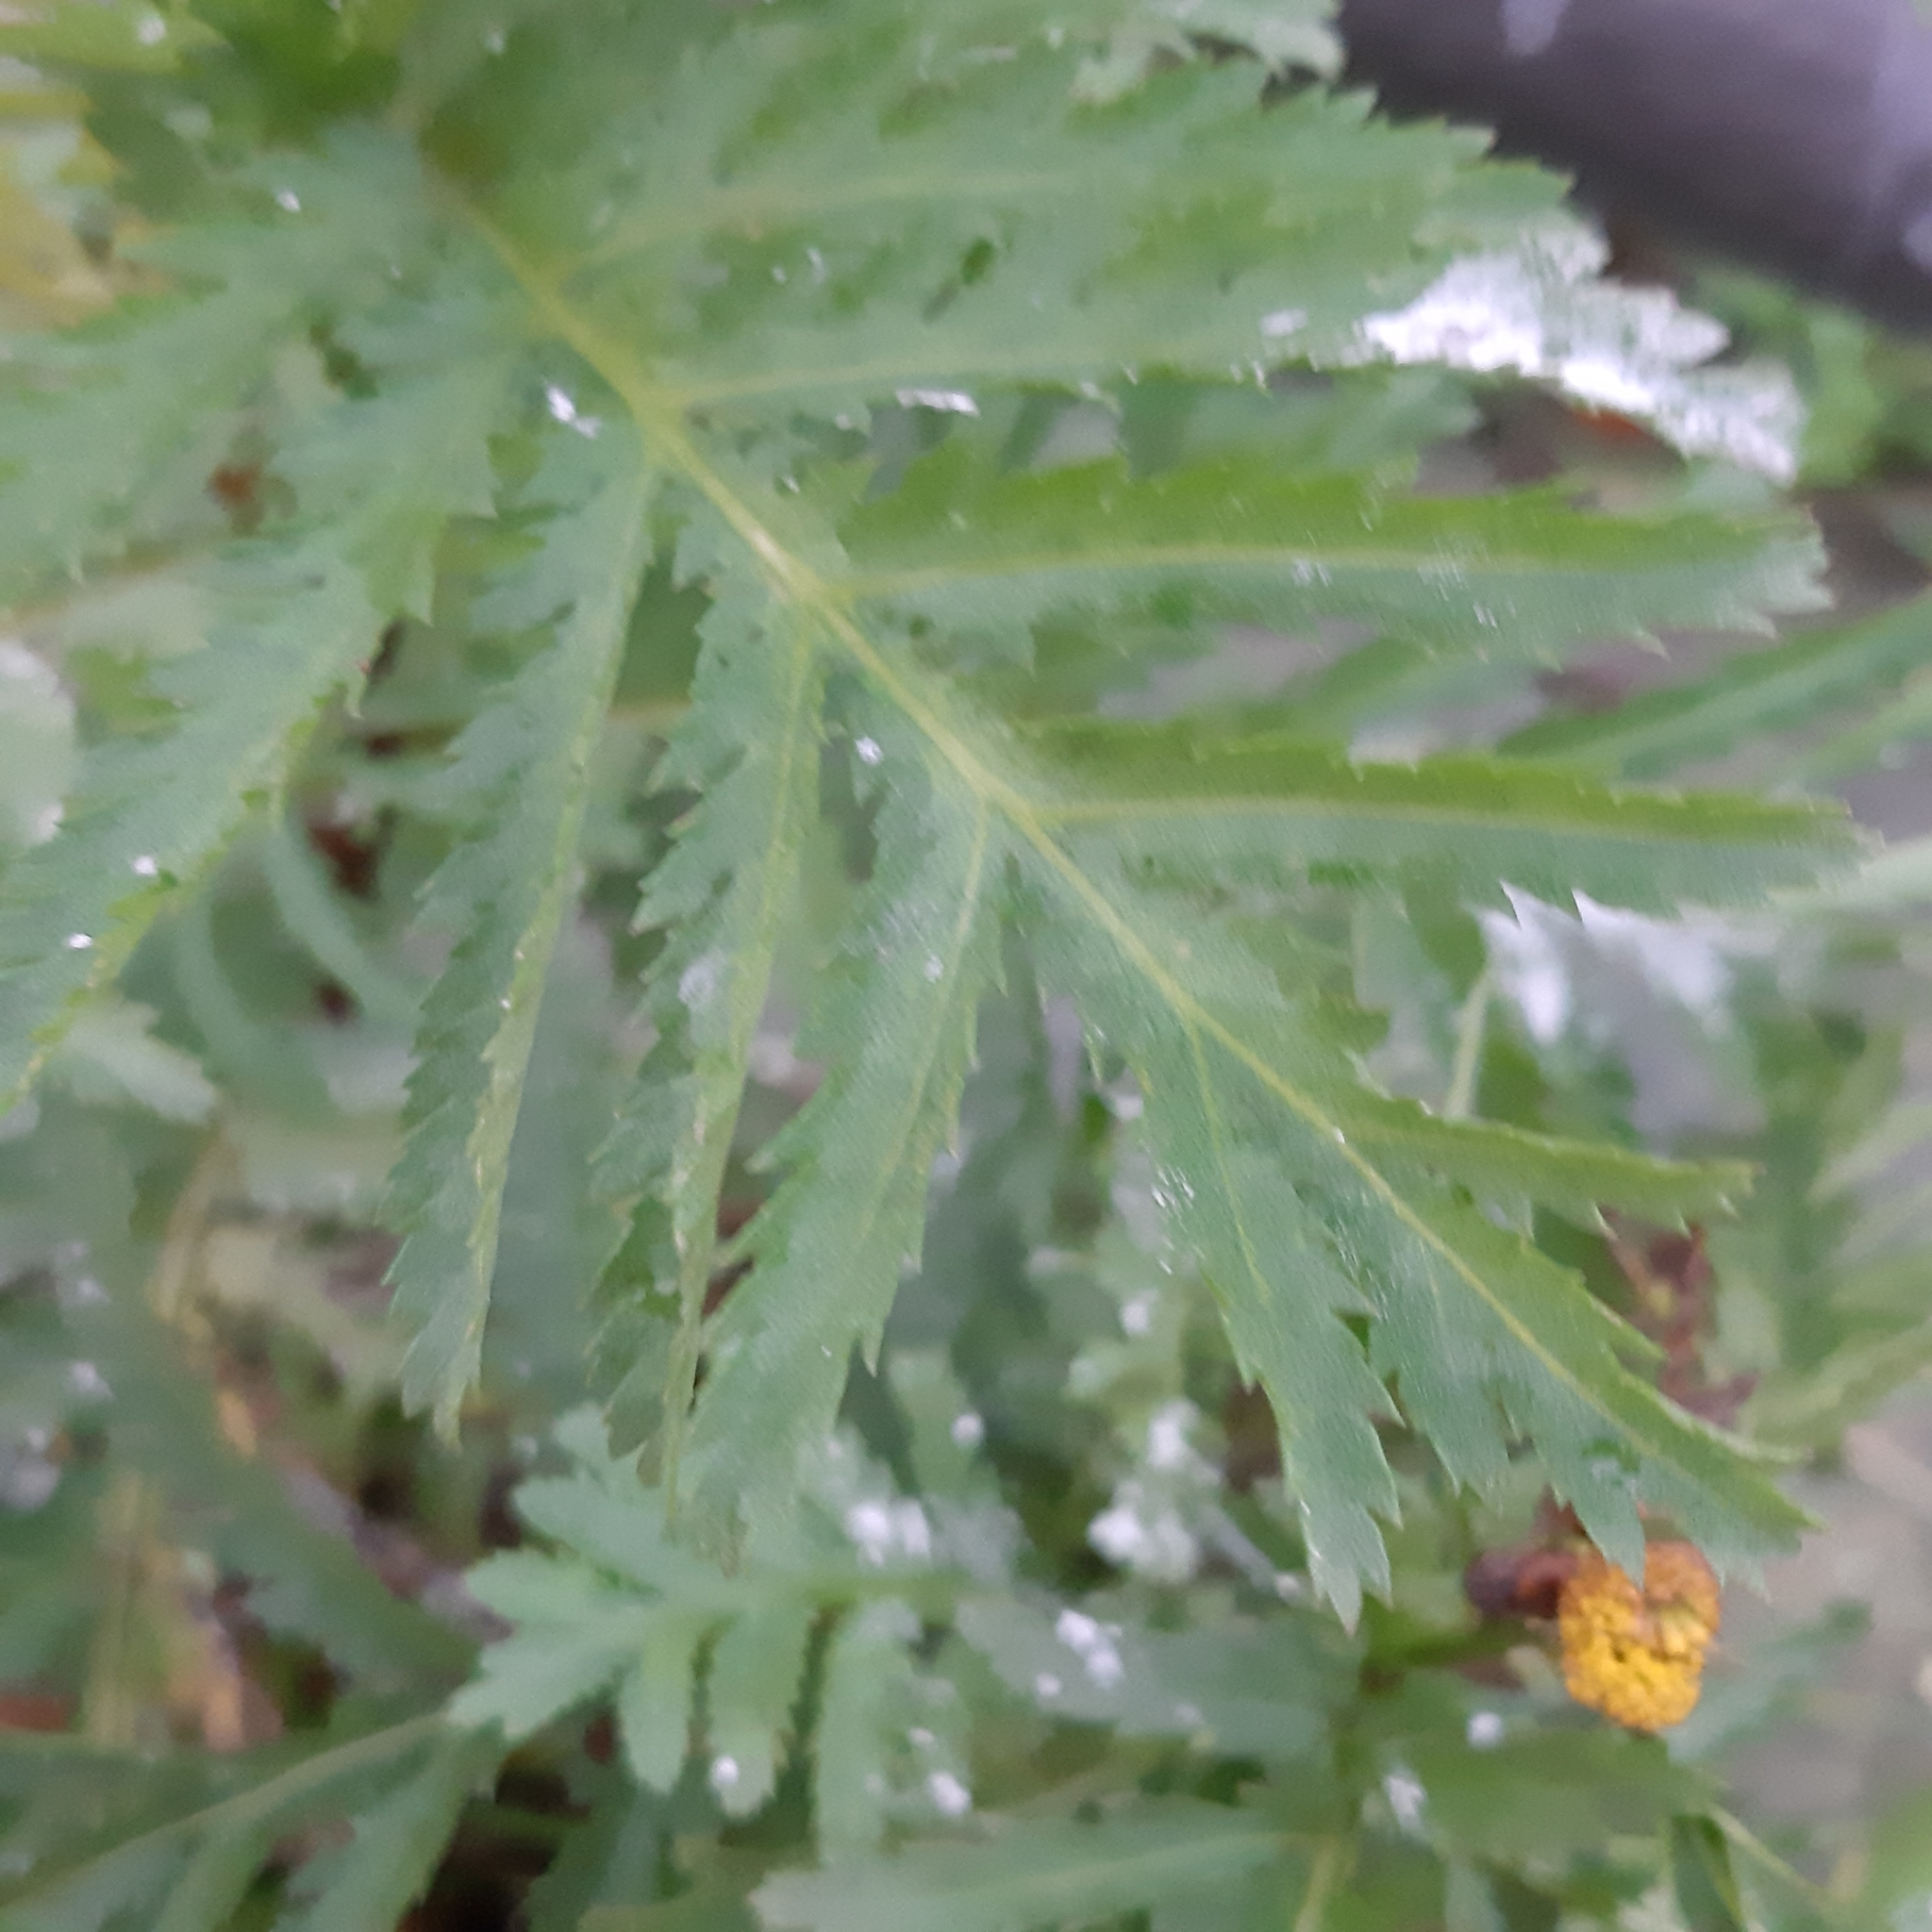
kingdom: Plantae
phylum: Tracheophyta
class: Magnoliopsida
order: Asterales
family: Asteraceae
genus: Tanacetum
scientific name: Tanacetum vulgare
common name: Common tansy
